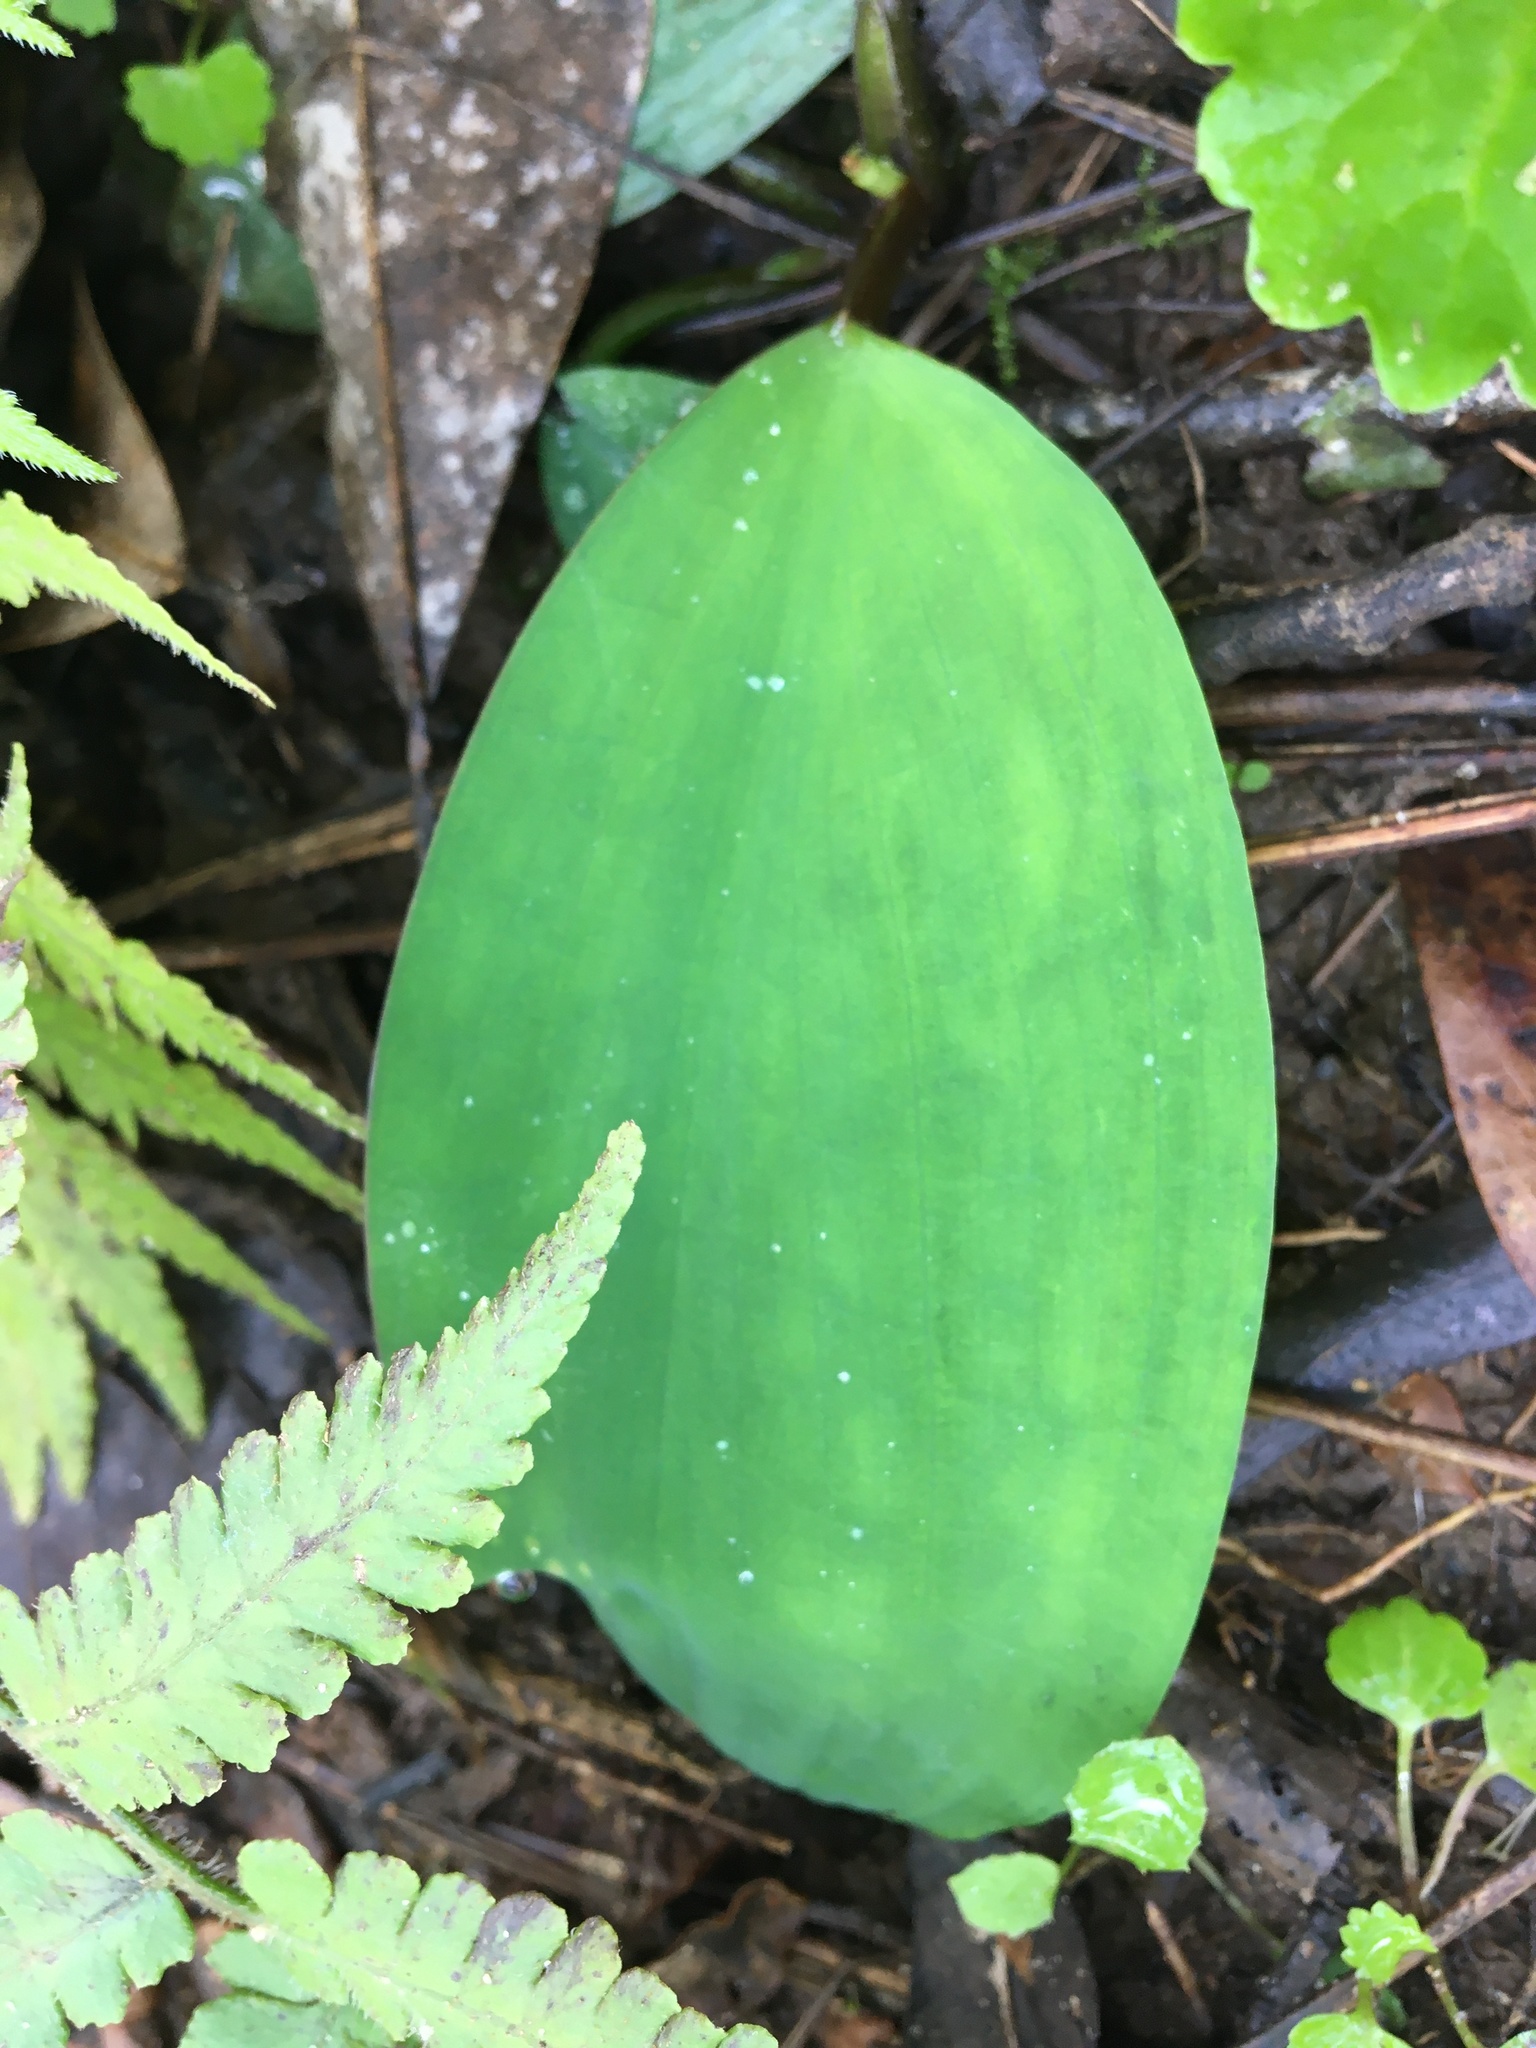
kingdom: Plantae
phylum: Tracheophyta
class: Liliopsida
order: Alismatales
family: Araceae
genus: Orontium
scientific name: Orontium aquaticum
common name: Golden-club
